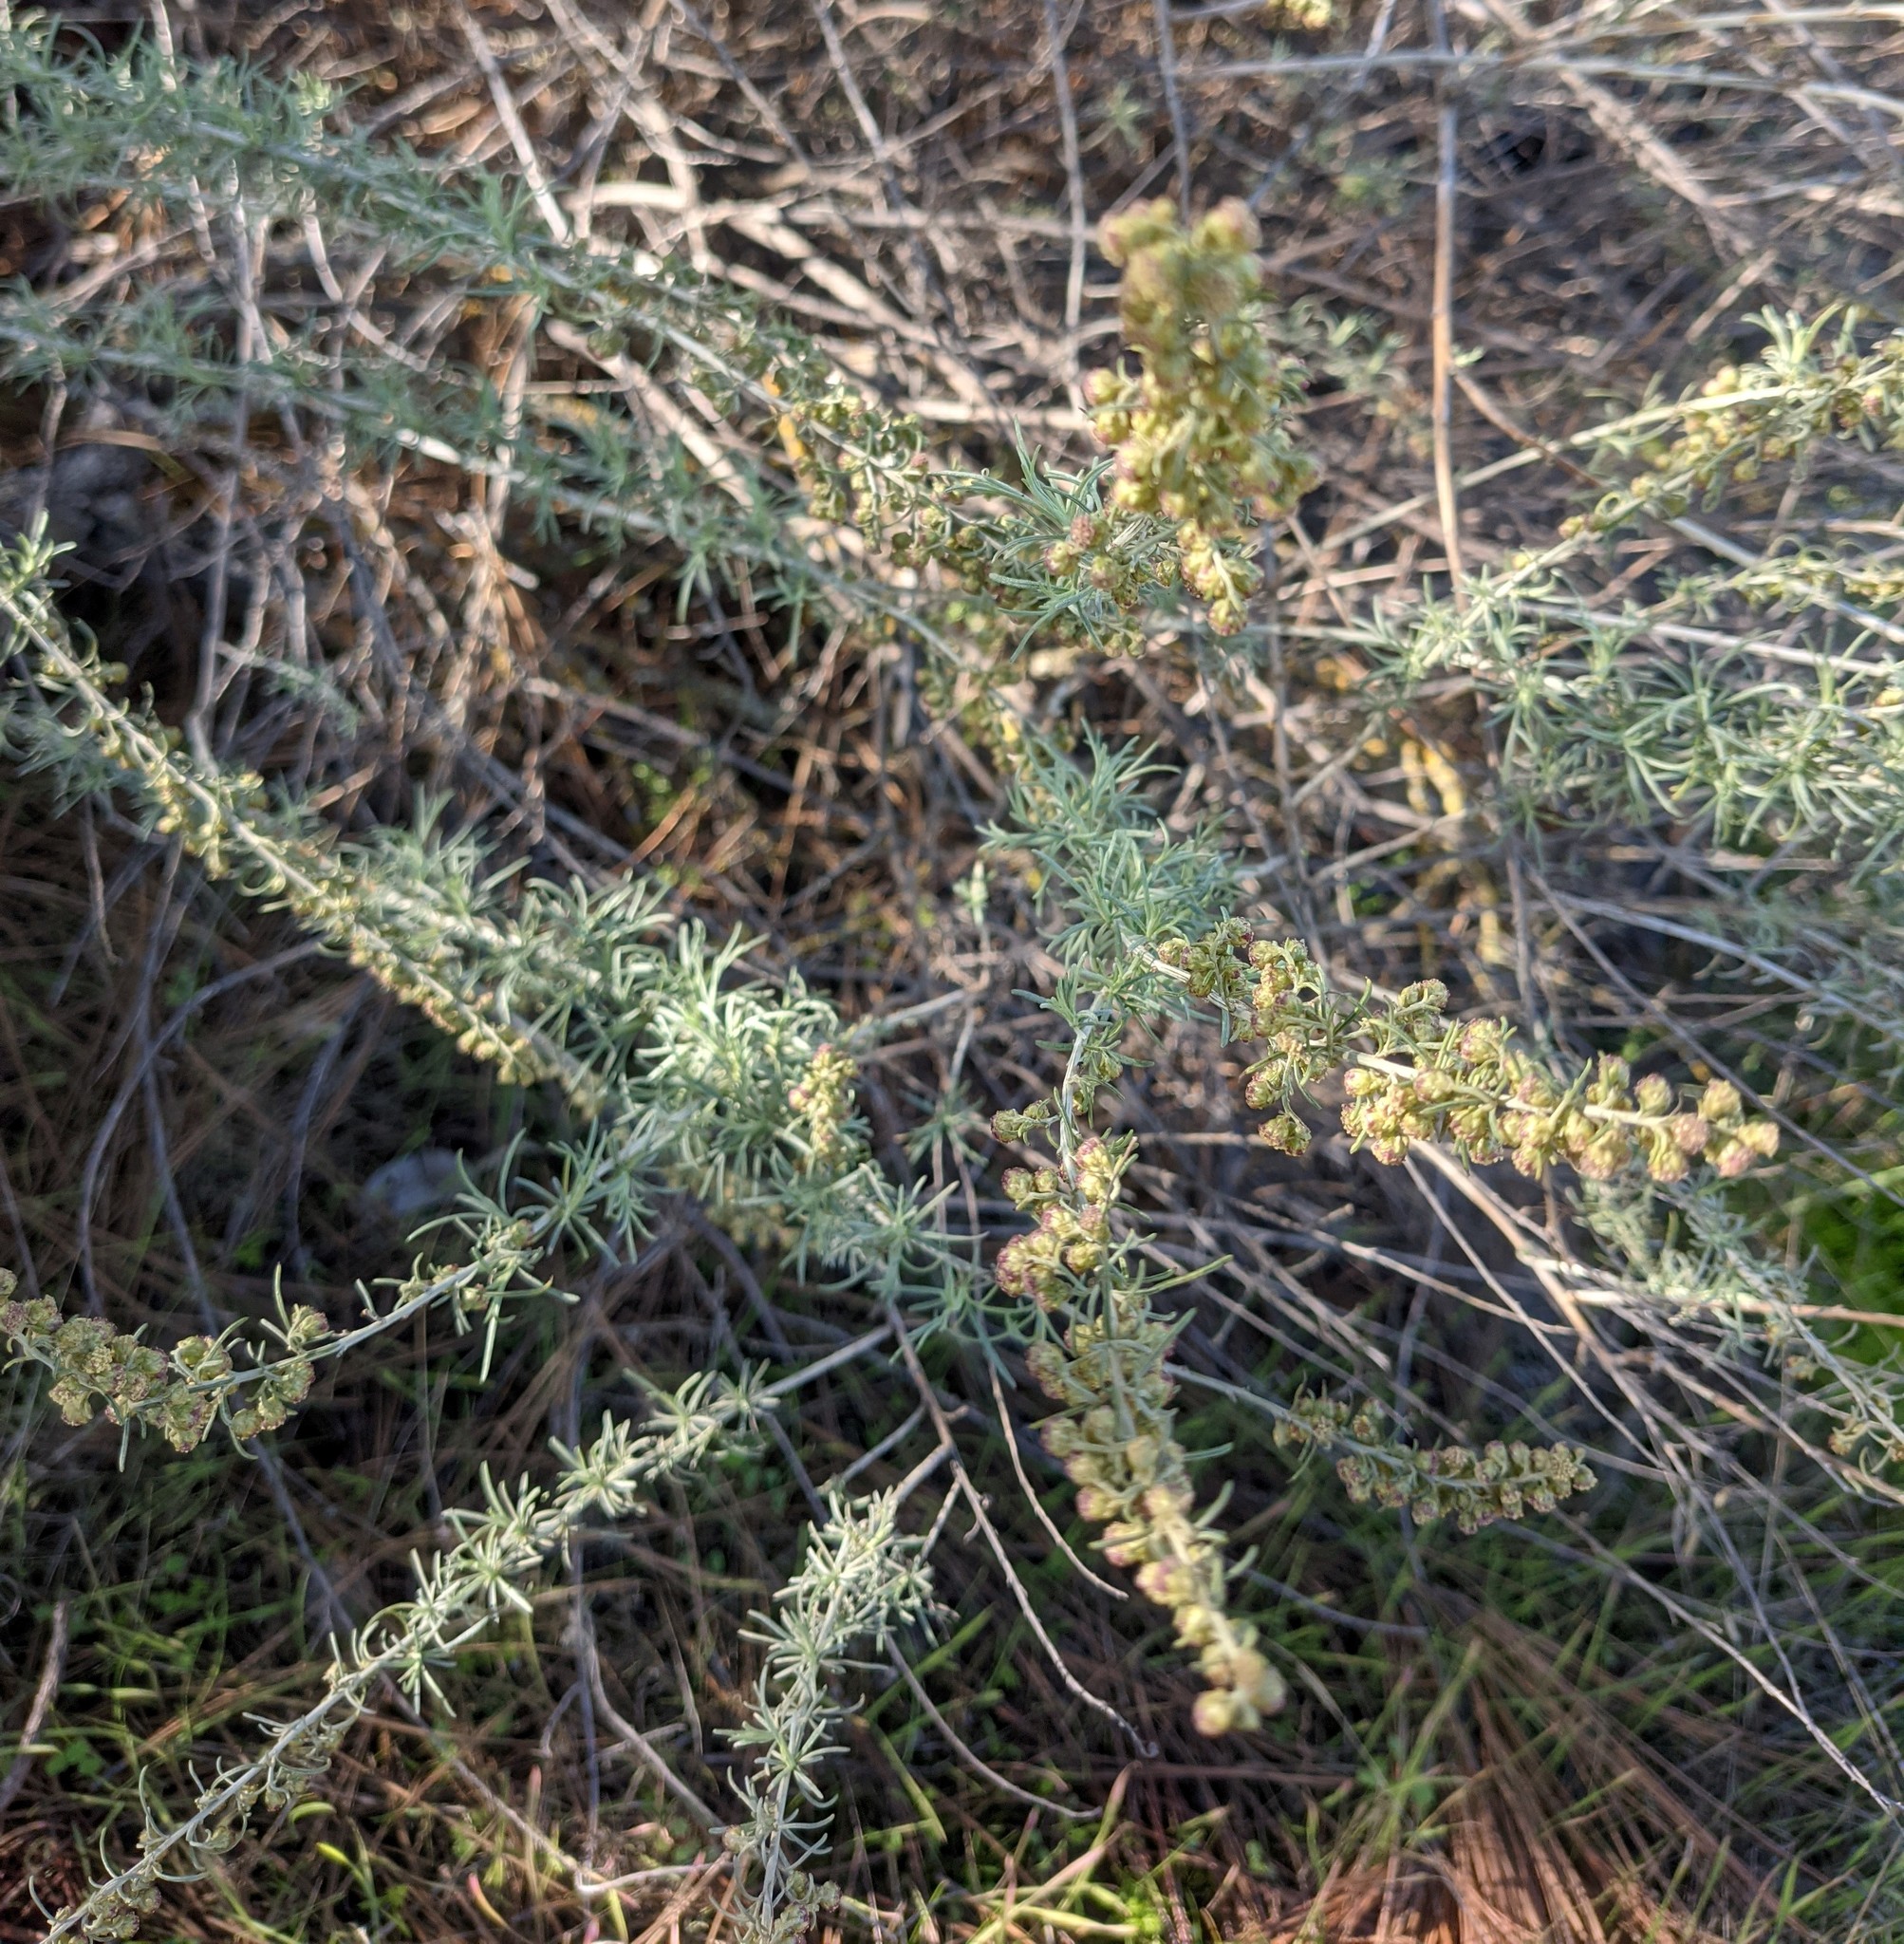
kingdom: Plantae
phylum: Tracheophyta
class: Magnoliopsida
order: Asterales
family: Asteraceae
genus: Artemisia
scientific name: Artemisia californica
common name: California sagebrush
